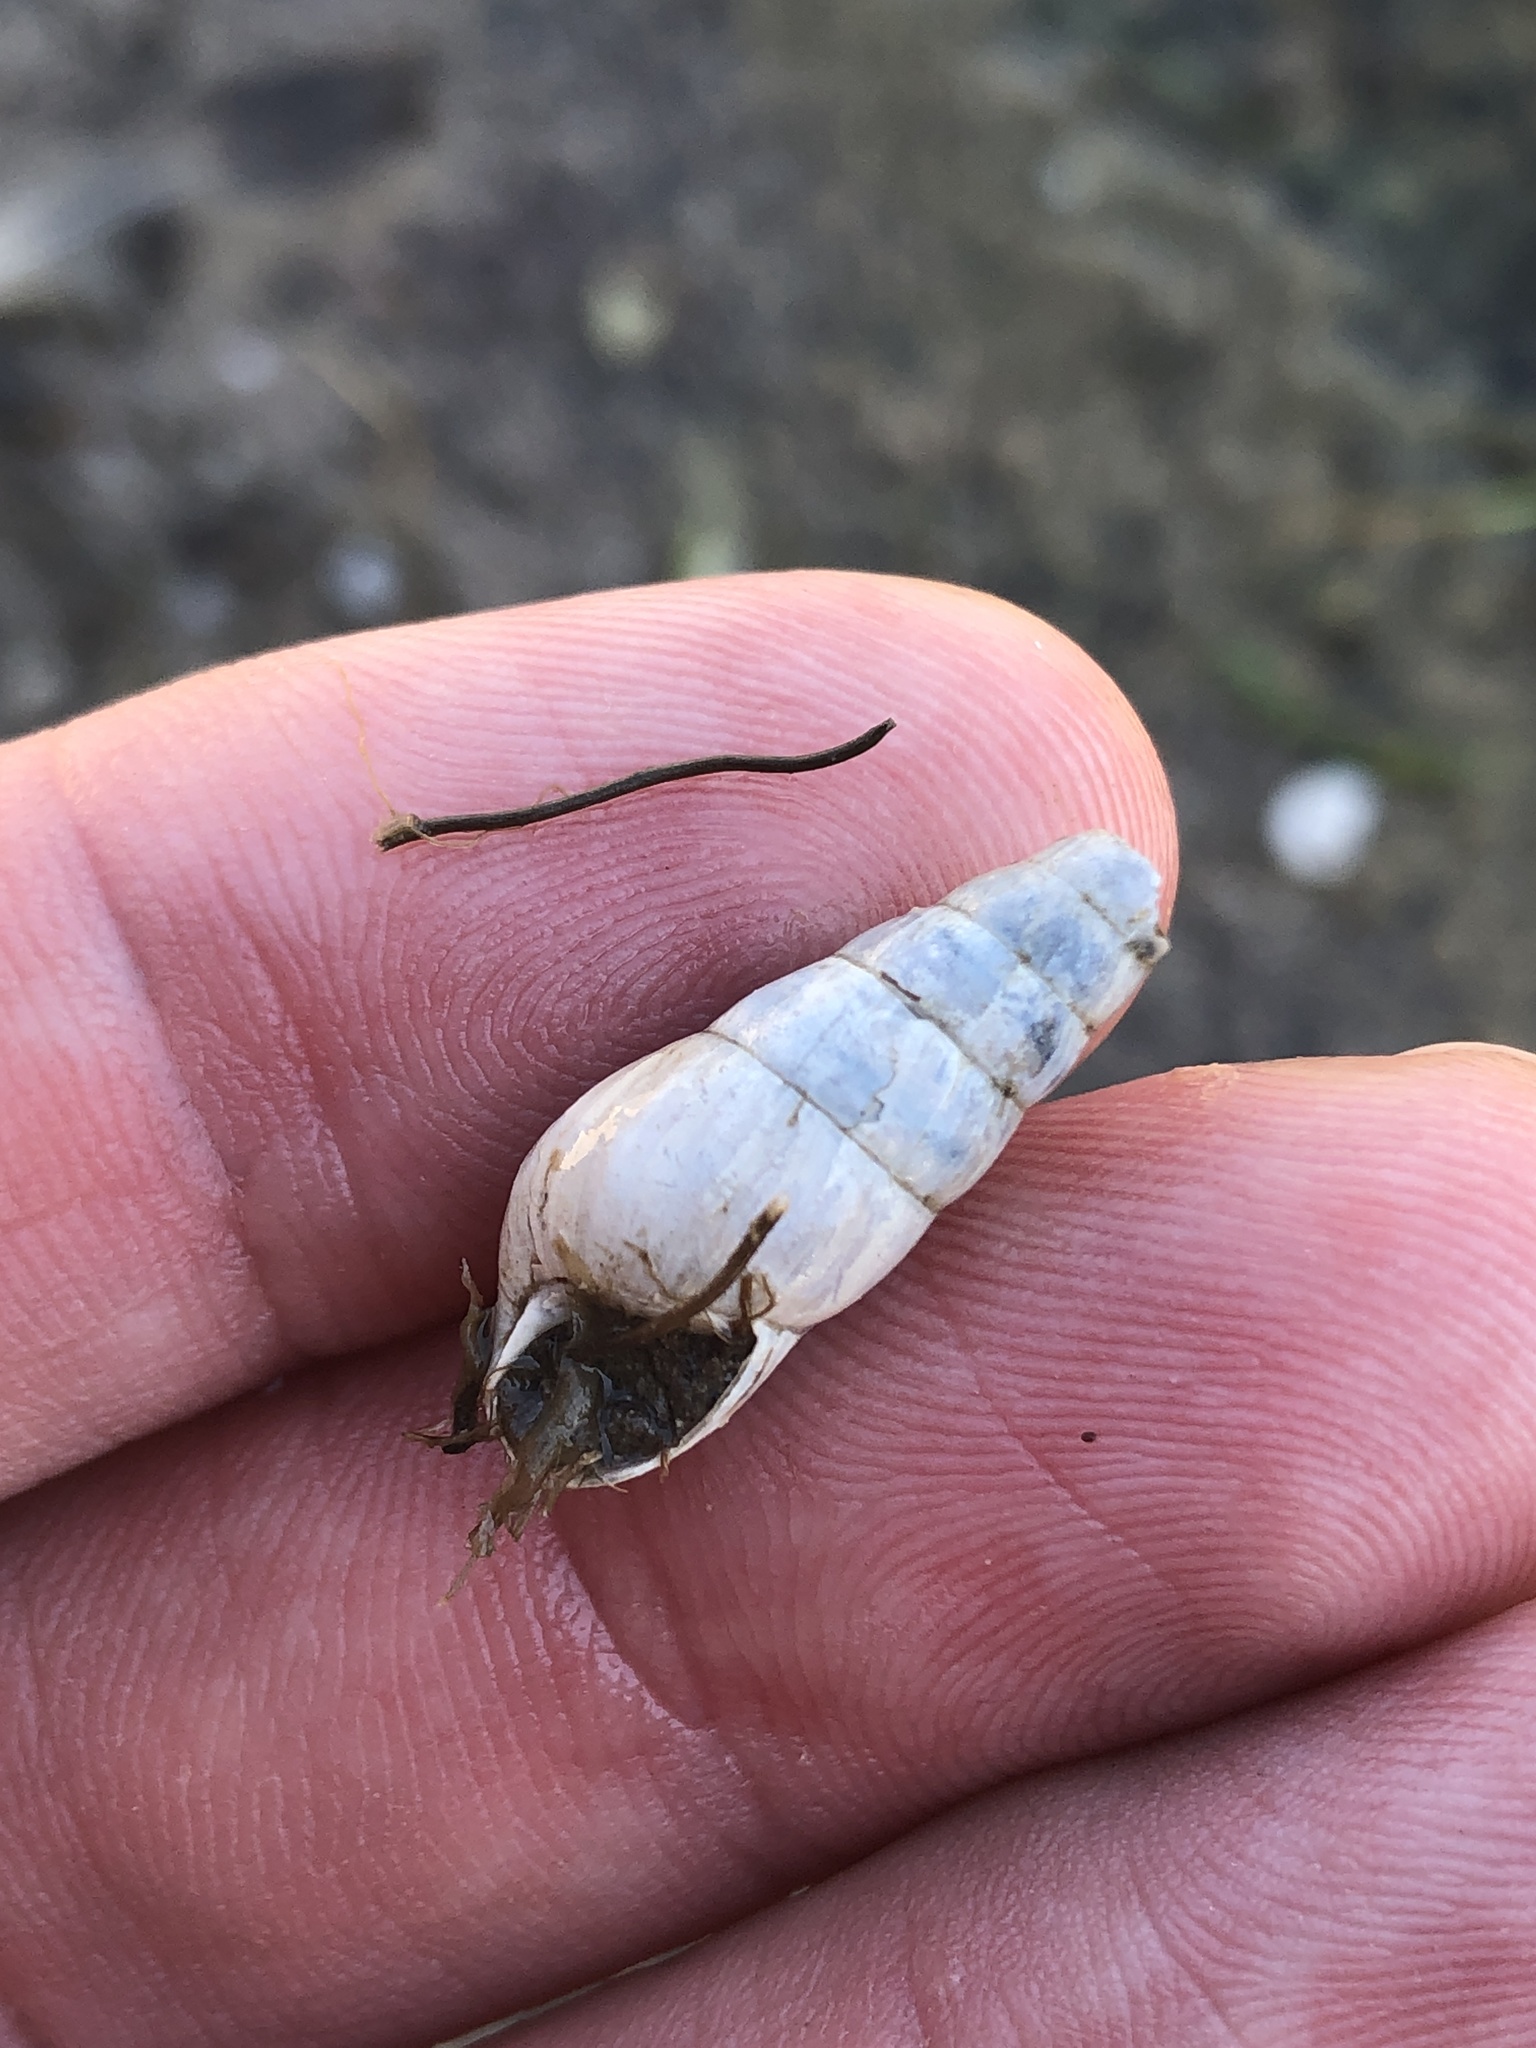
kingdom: Animalia
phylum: Mollusca
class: Gastropoda
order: Stylommatophora
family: Achatinidae
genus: Rumina
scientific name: Rumina decollata
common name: Decollate snail
